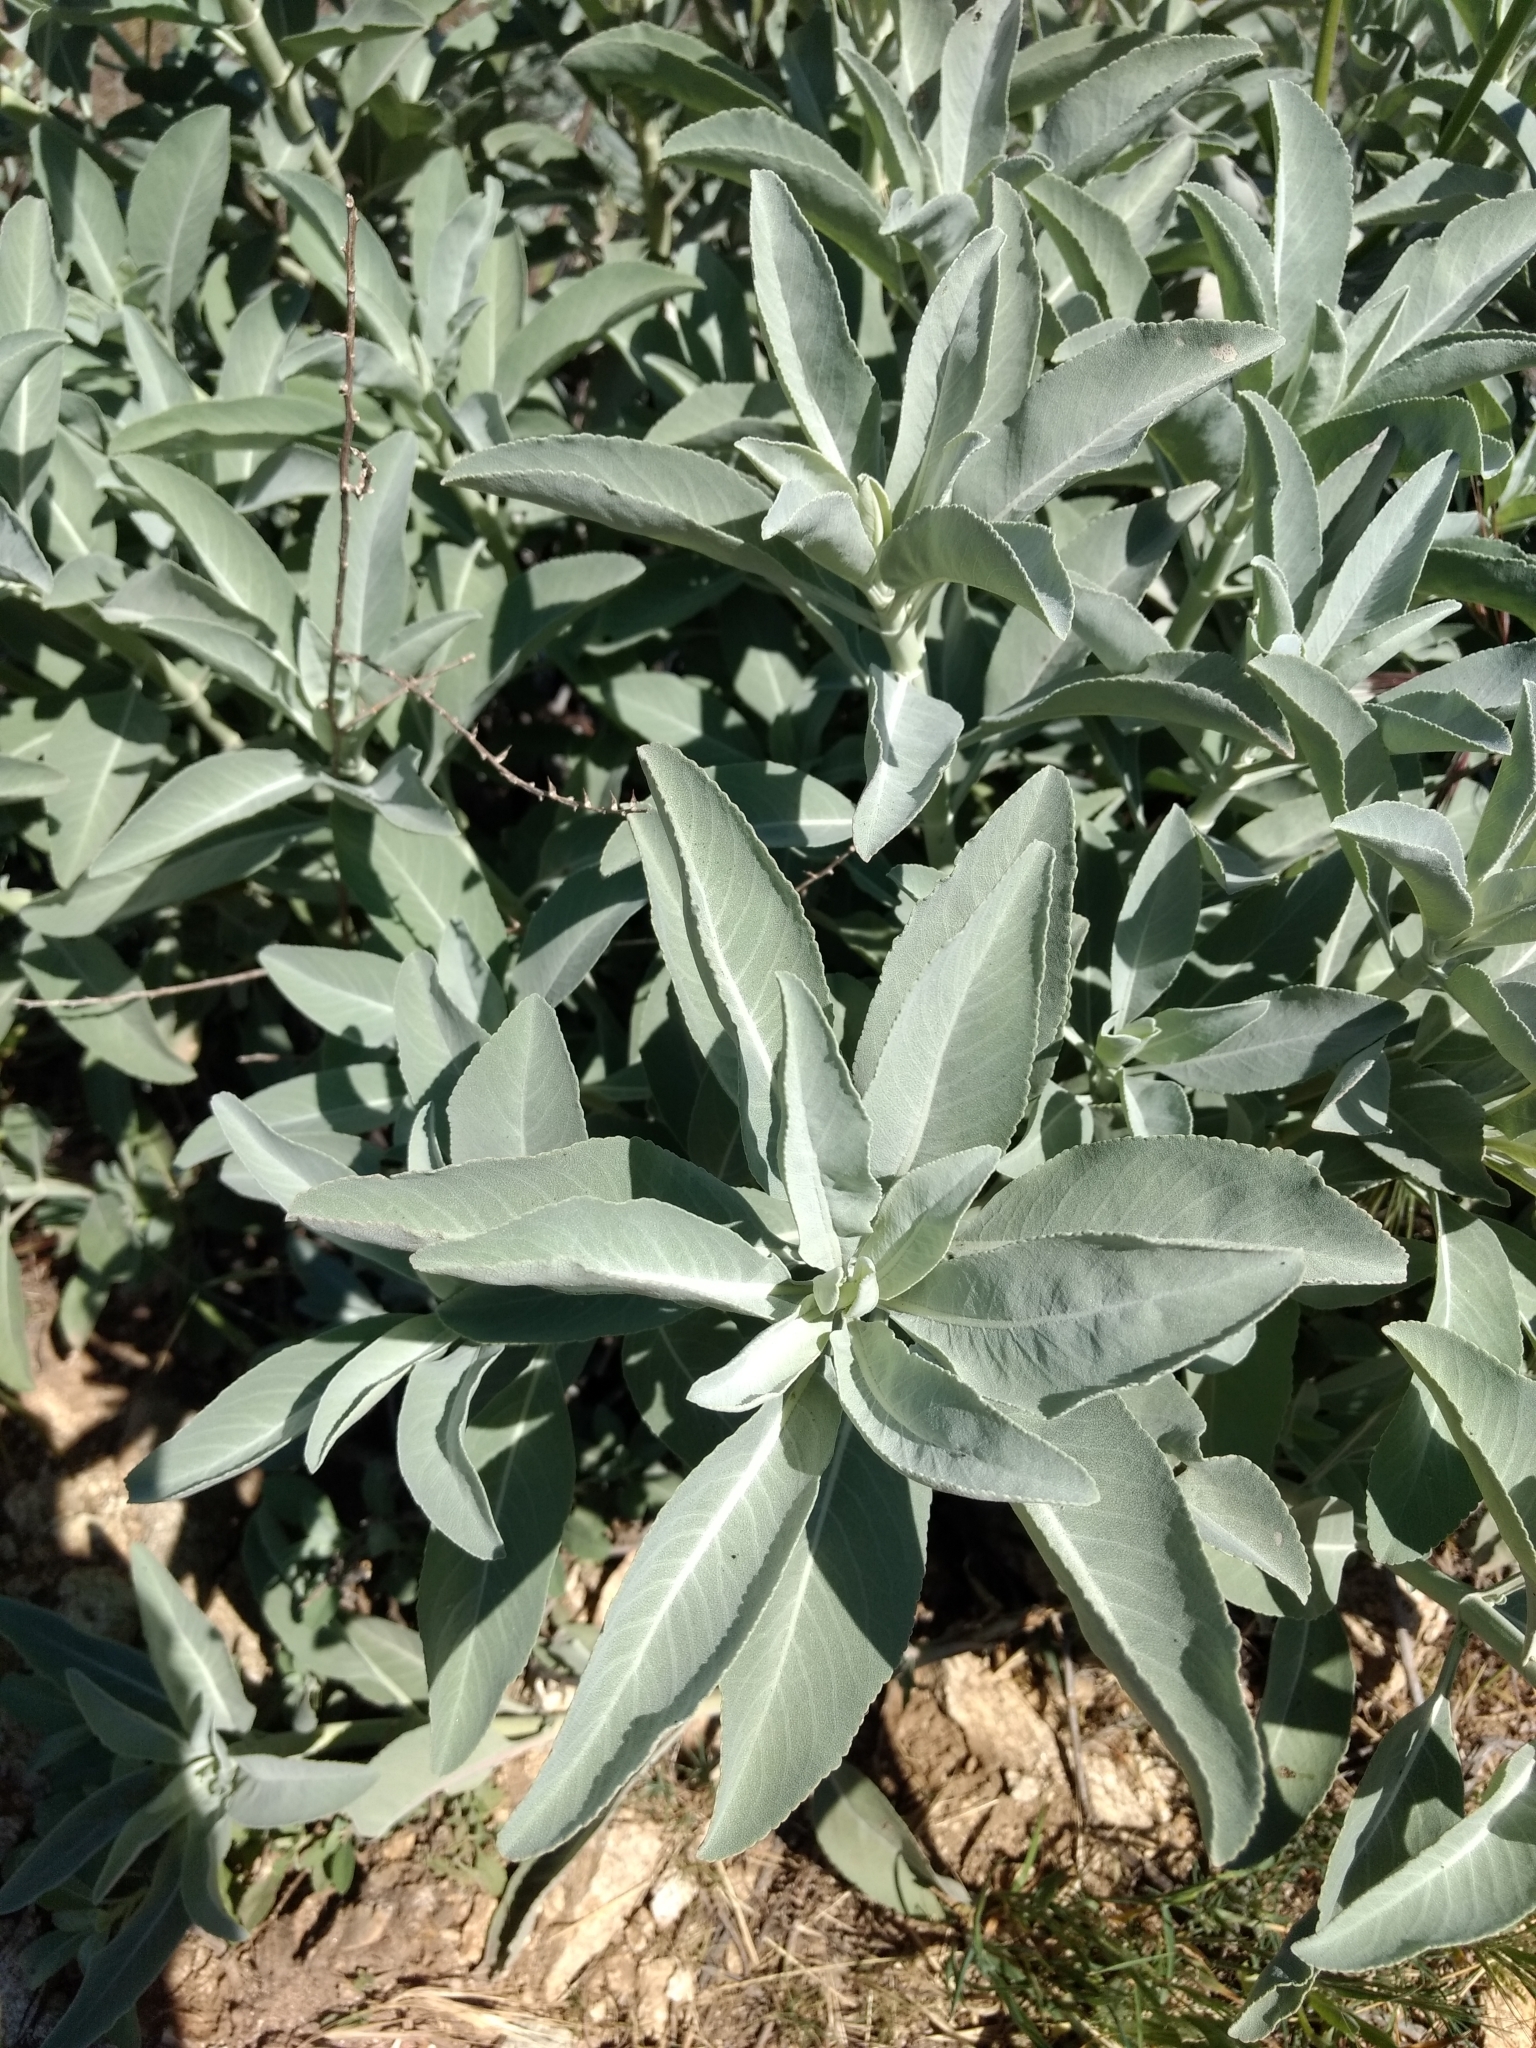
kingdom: Plantae
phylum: Tracheophyta
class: Magnoliopsida
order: Lamiales
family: Lamiaceae
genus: Salvia
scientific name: Salvia apiana
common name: White sage
